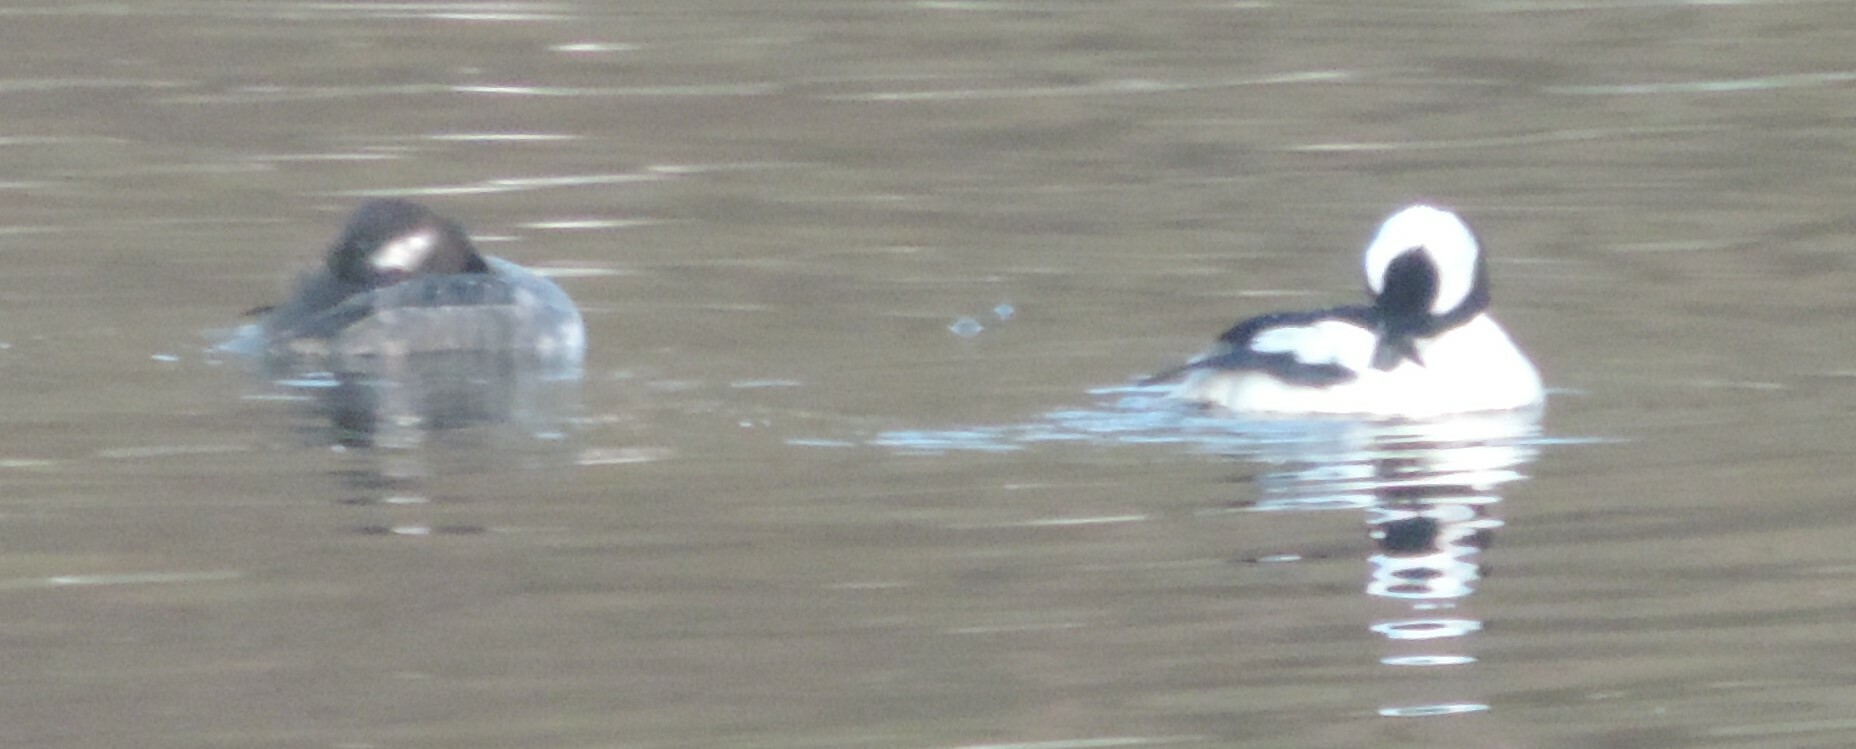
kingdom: Animalia
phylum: Chordata
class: Aves
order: Anseriformes
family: Anatidae
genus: Bucephala
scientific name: Bucephala albeola
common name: Bufflehead
